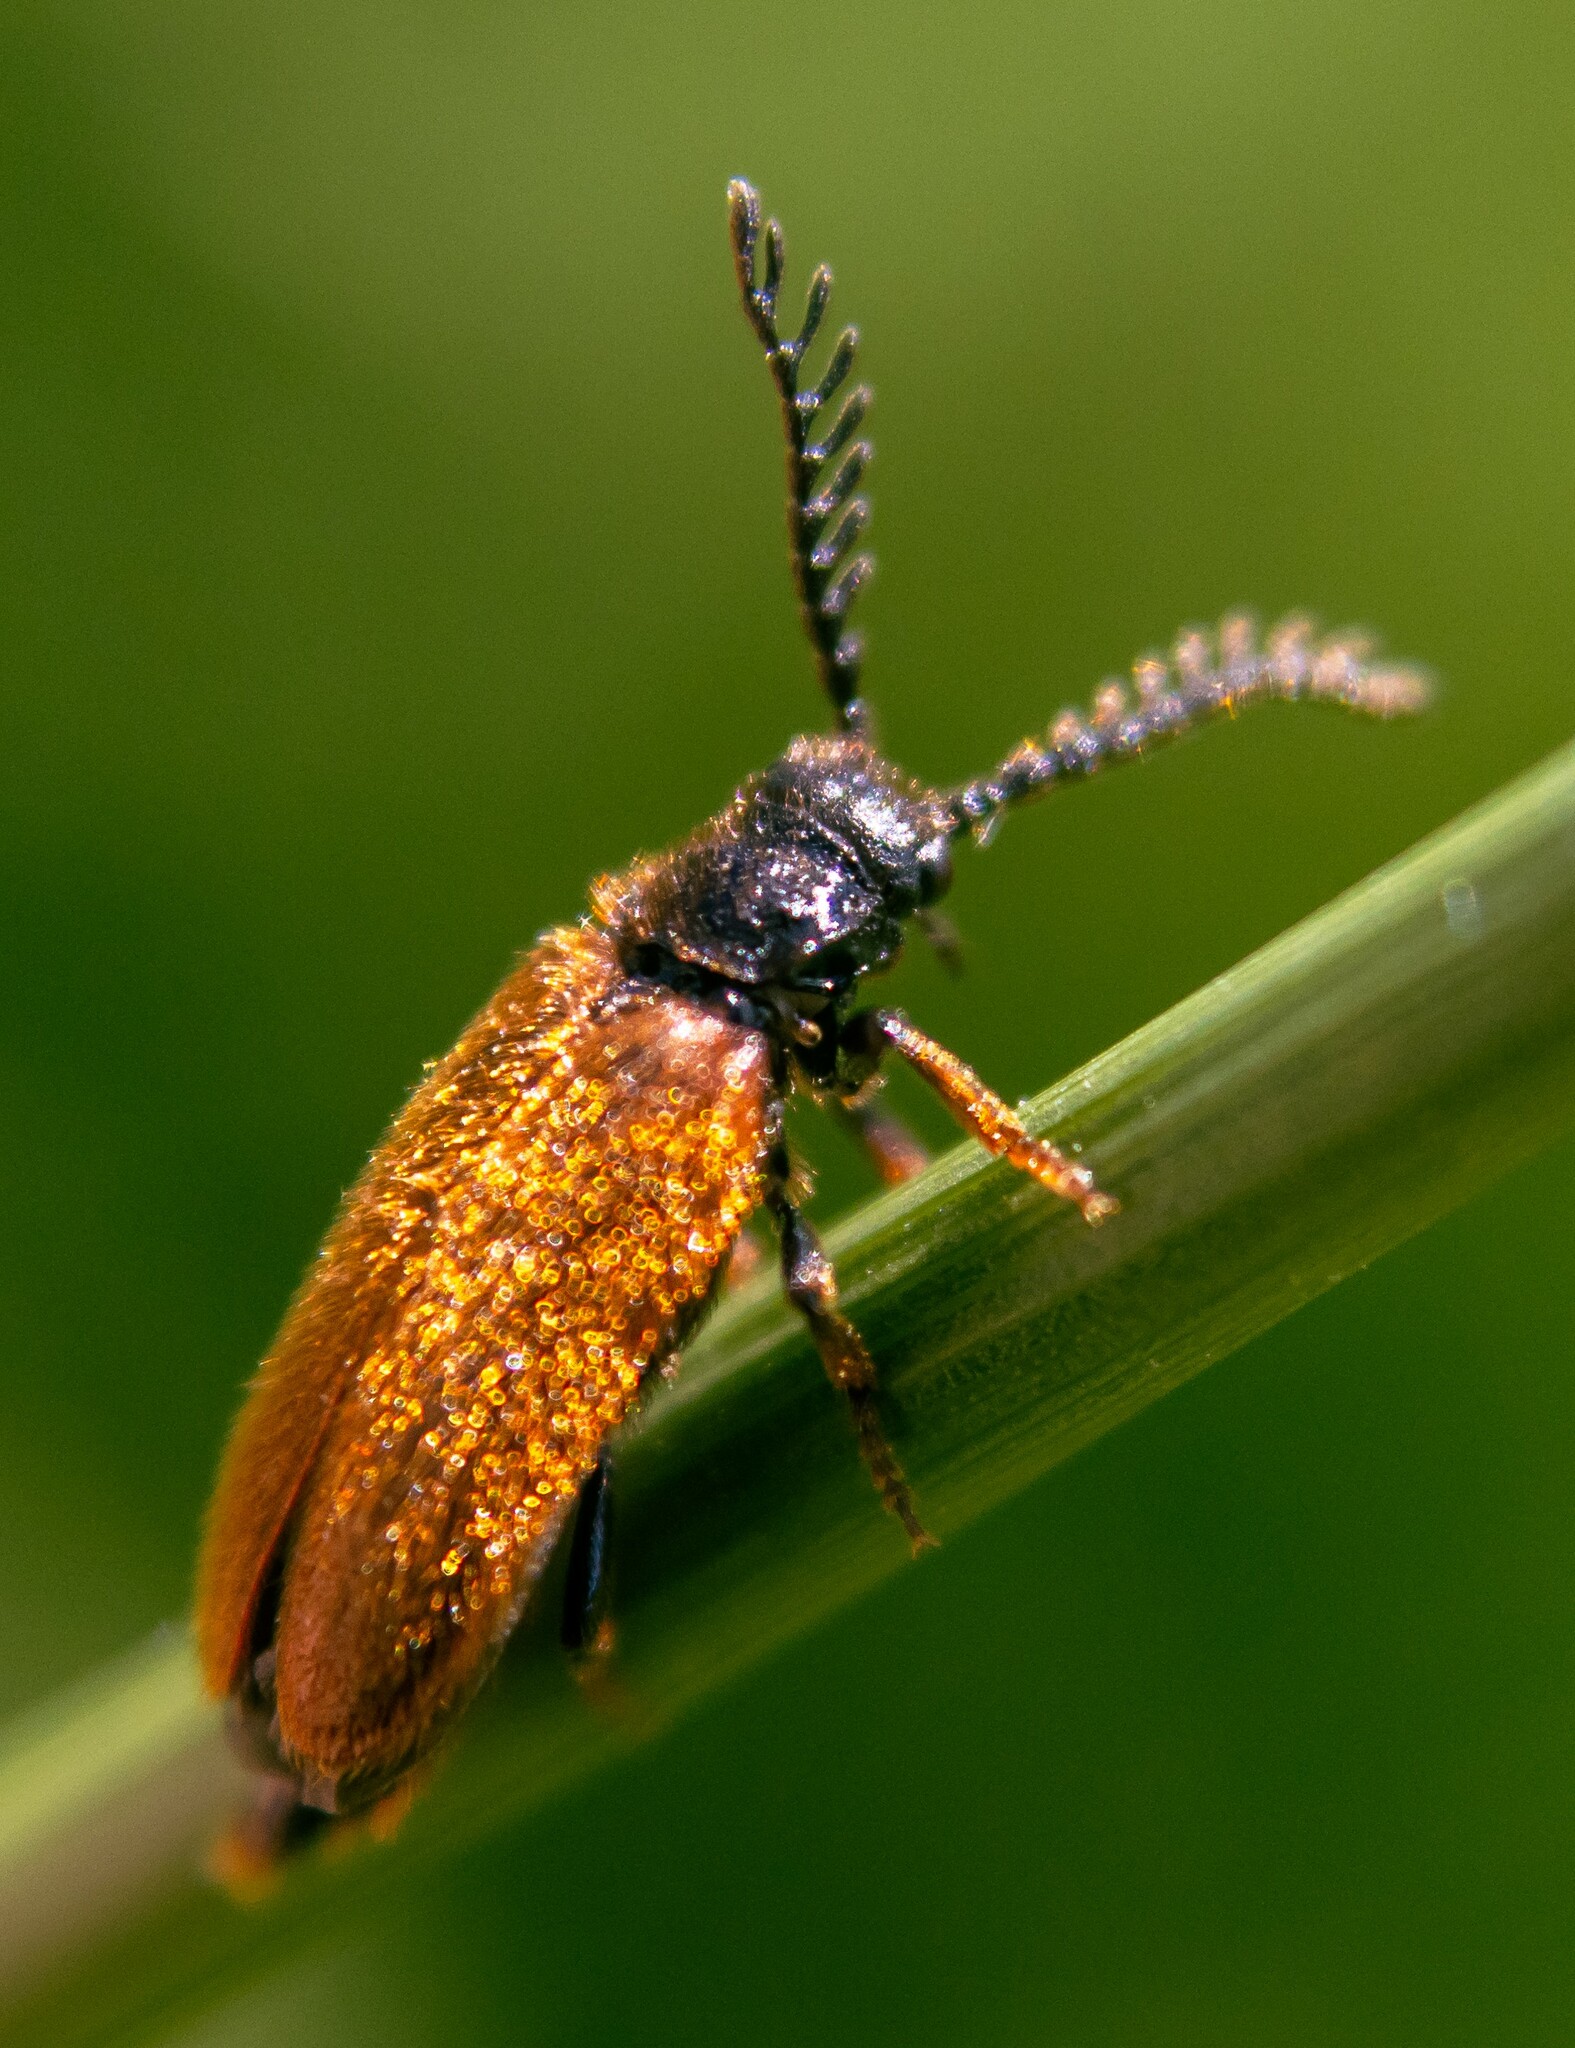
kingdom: Animalia
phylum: Arthropoda
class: Insecta
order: Coleoptera
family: Drilidae
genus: Drilus
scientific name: Drilus flavescens
